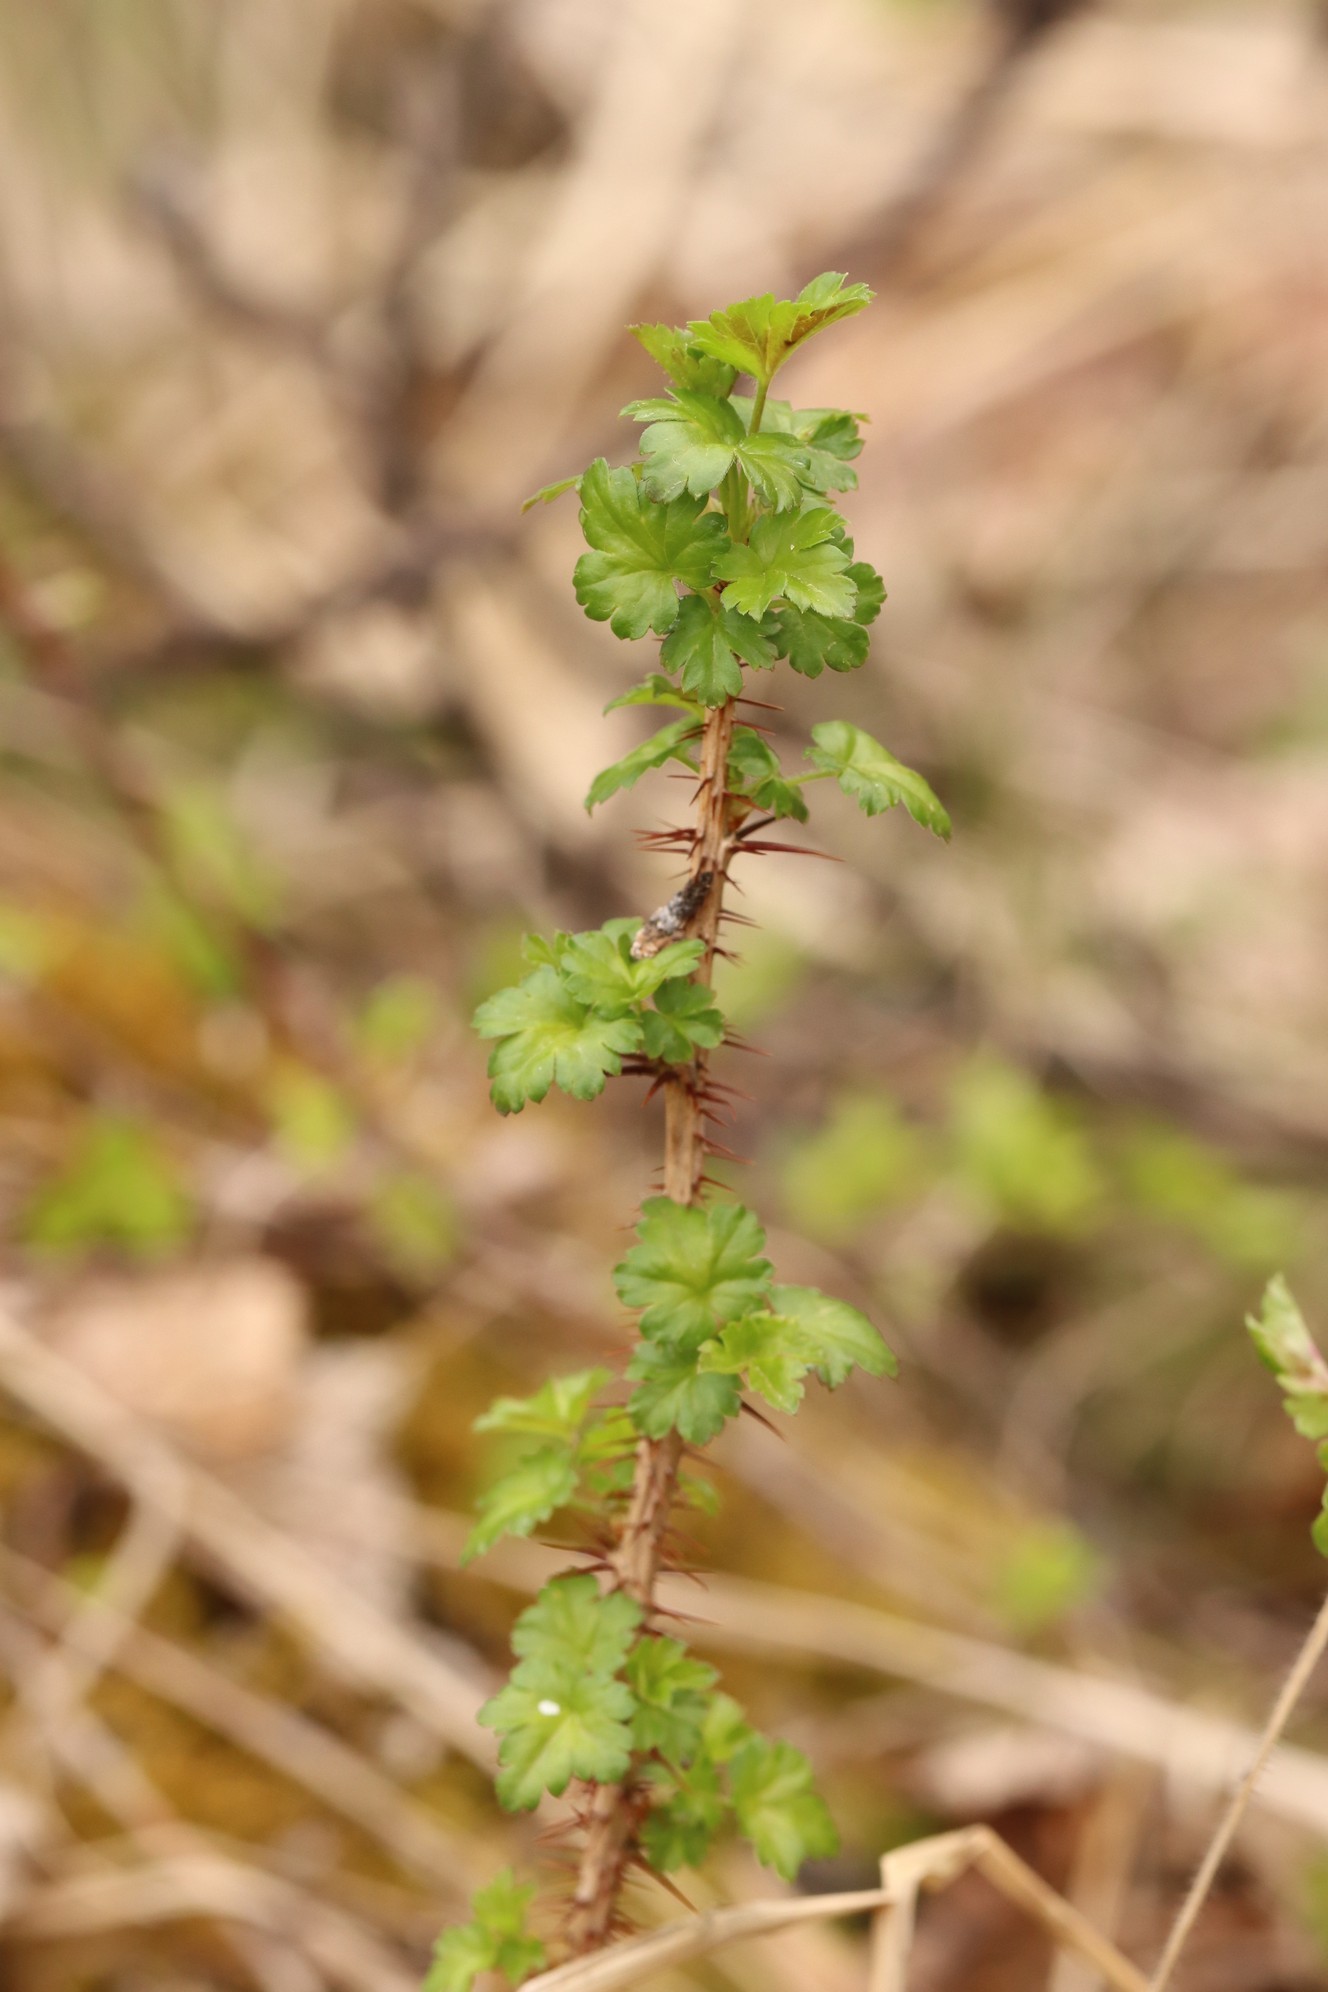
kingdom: Plantae
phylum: Tracheophyta
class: Magnoliopsida
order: Saxifragales
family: Grossulariaceae
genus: Ribes
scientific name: Ribes aciculare
